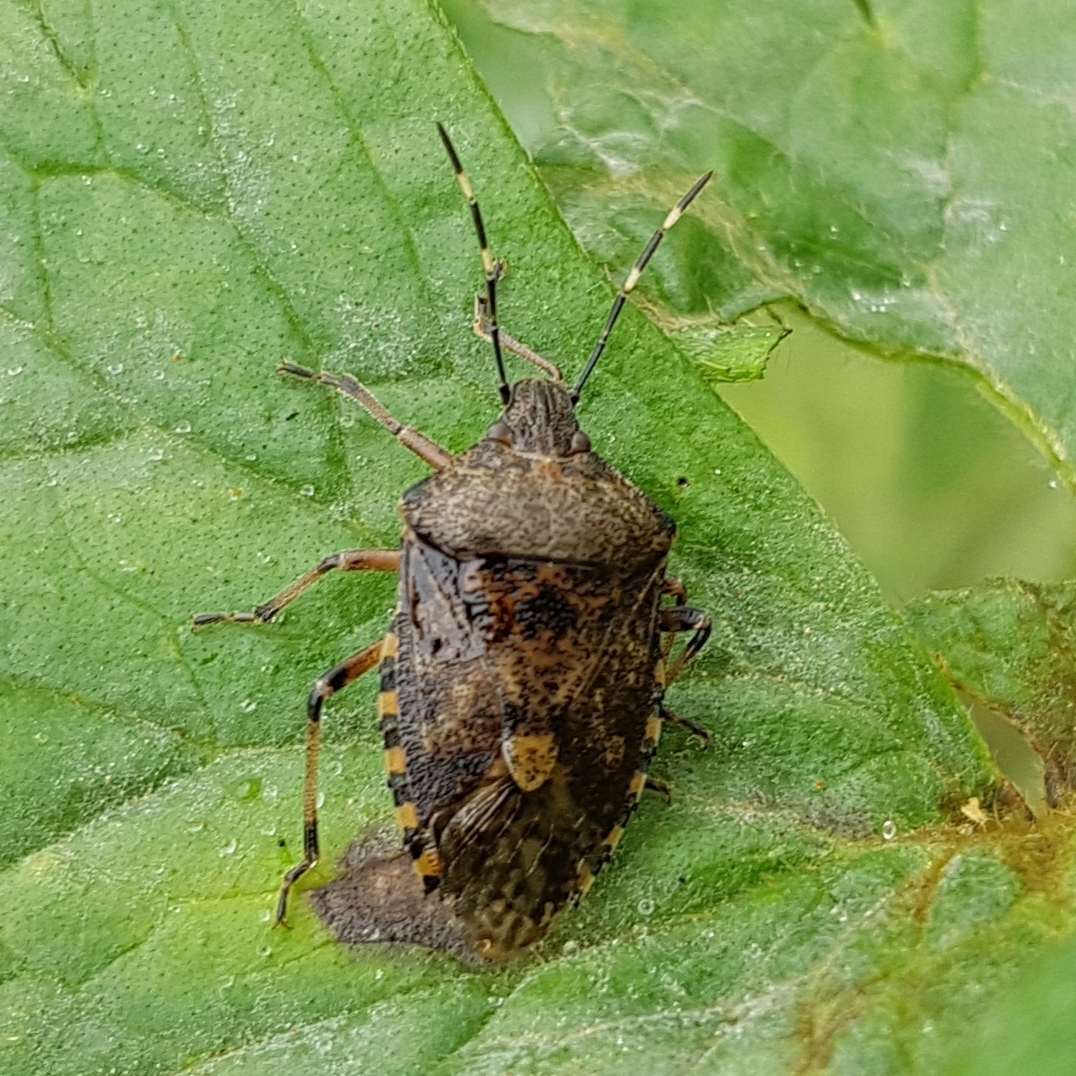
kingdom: Animalia
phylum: Arthropoda
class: Insecta
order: Hemiptera
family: Pentatomidae
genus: Rhaphigaster
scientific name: Rhaphigaster nebulosa
